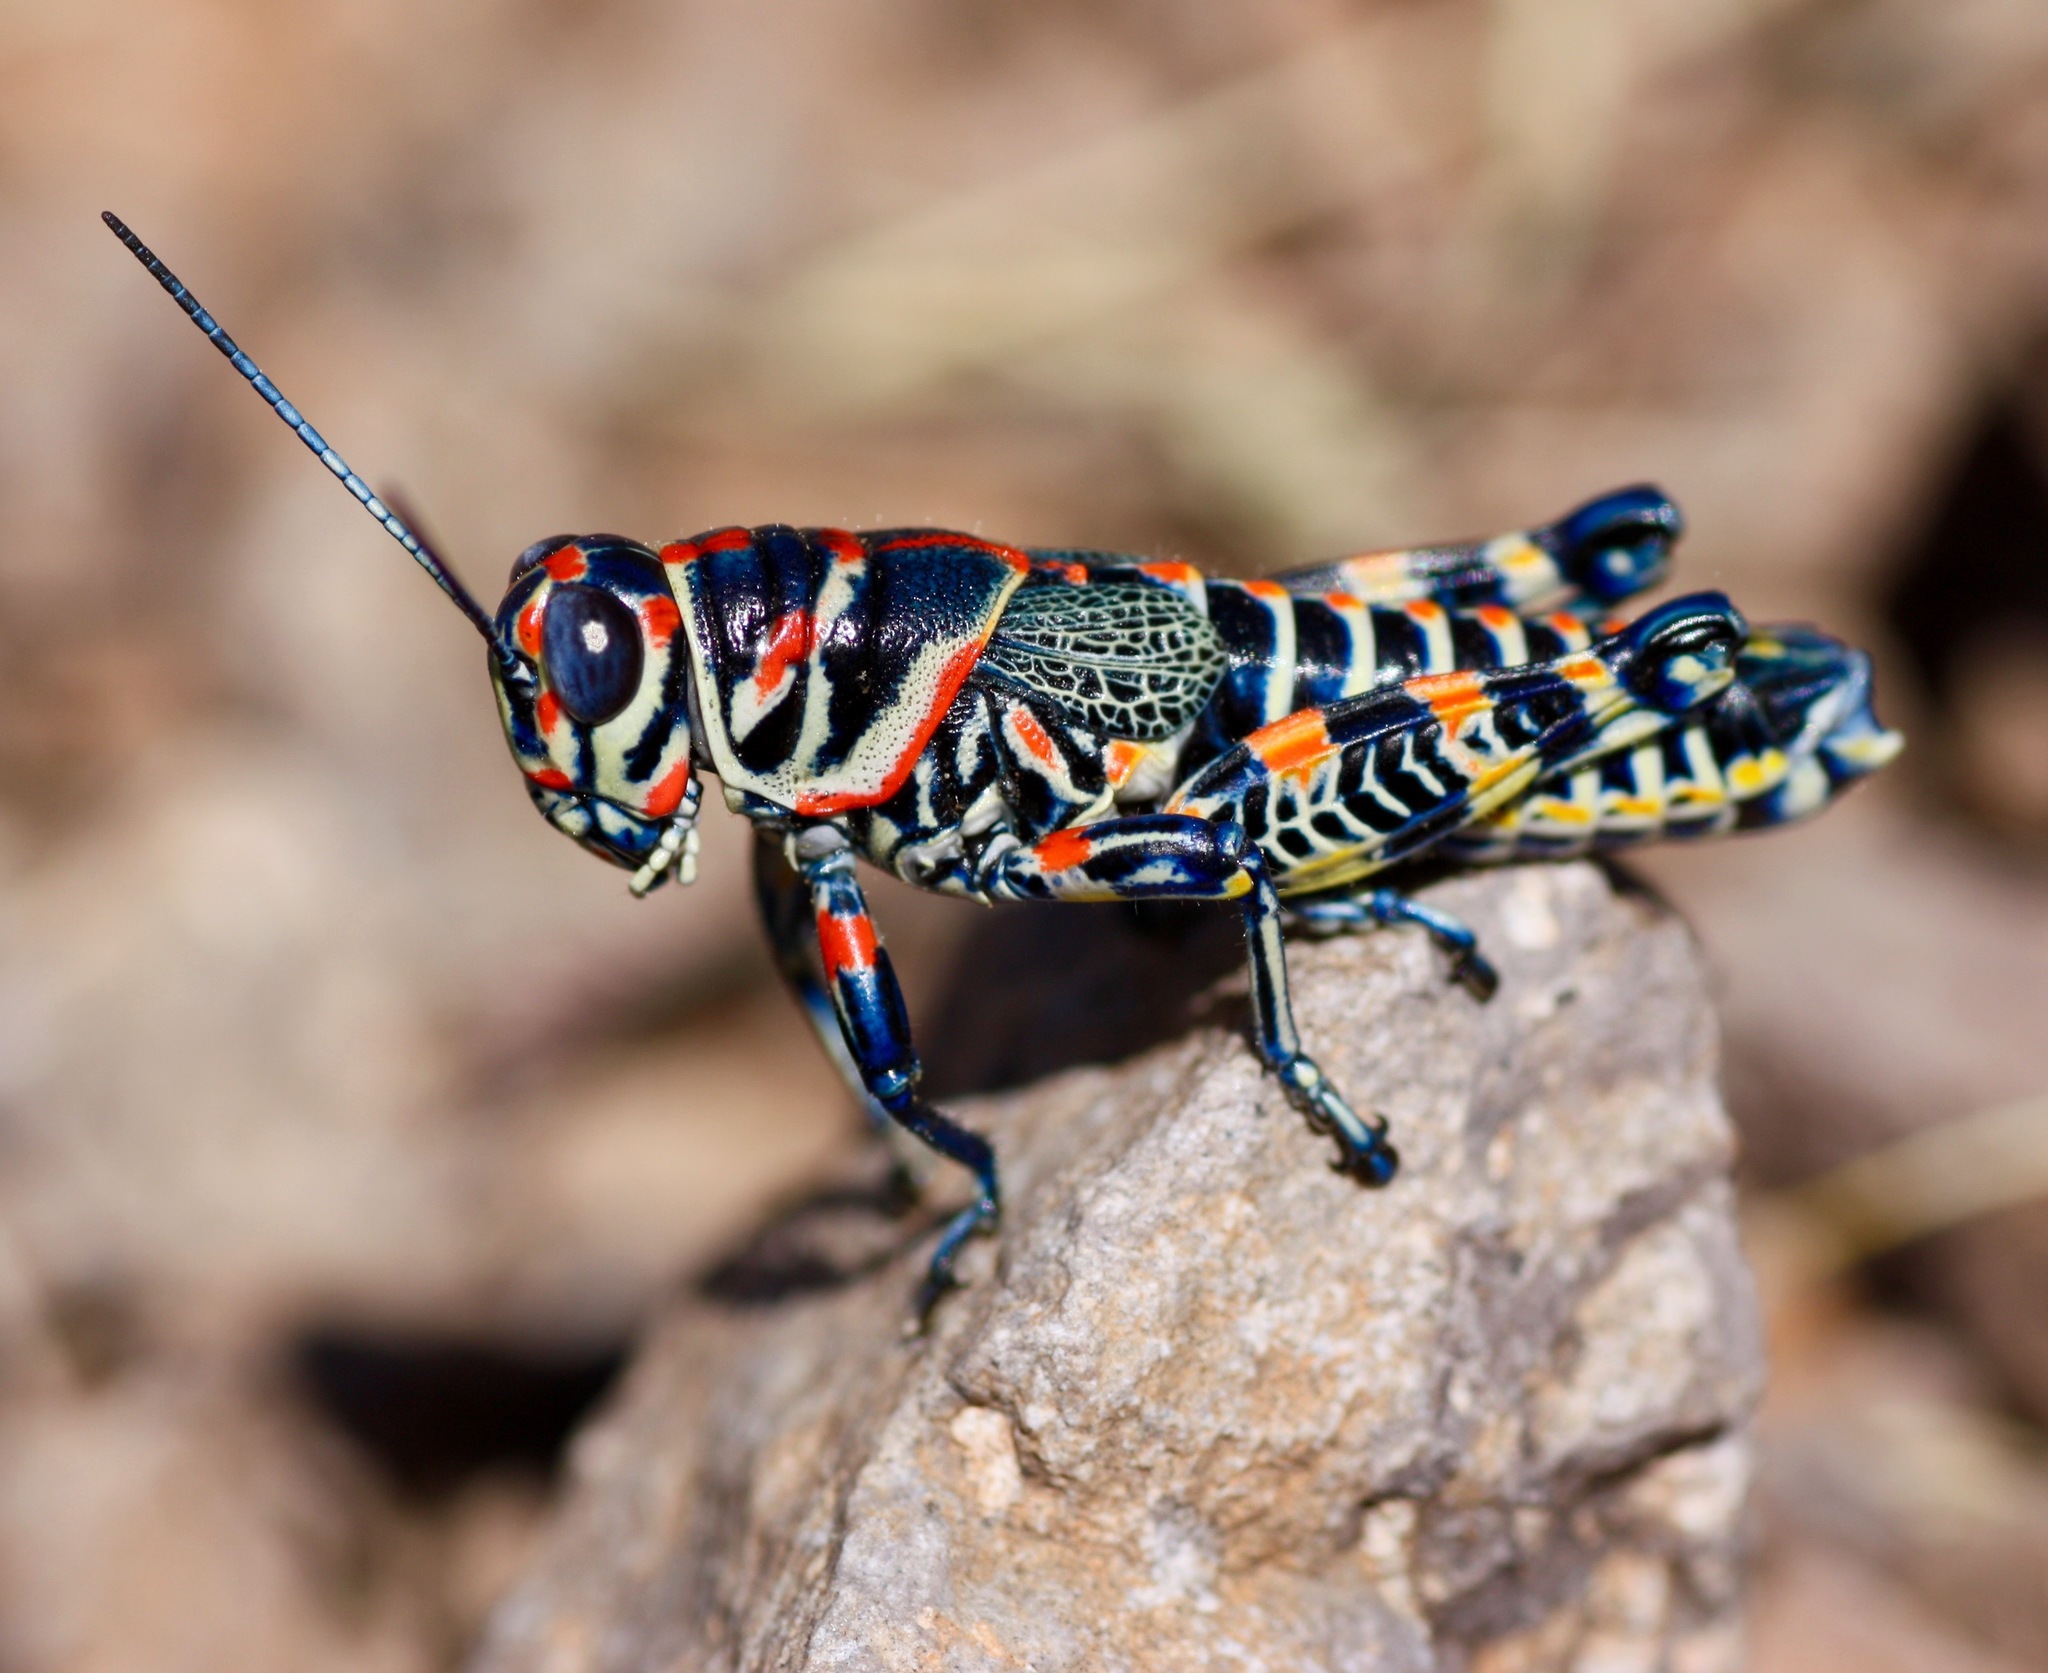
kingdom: Animalia
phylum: Arthropoda
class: Insecta
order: Orthoptera
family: Acrididae
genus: Dactylotum
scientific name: Dactylotum bicolor
